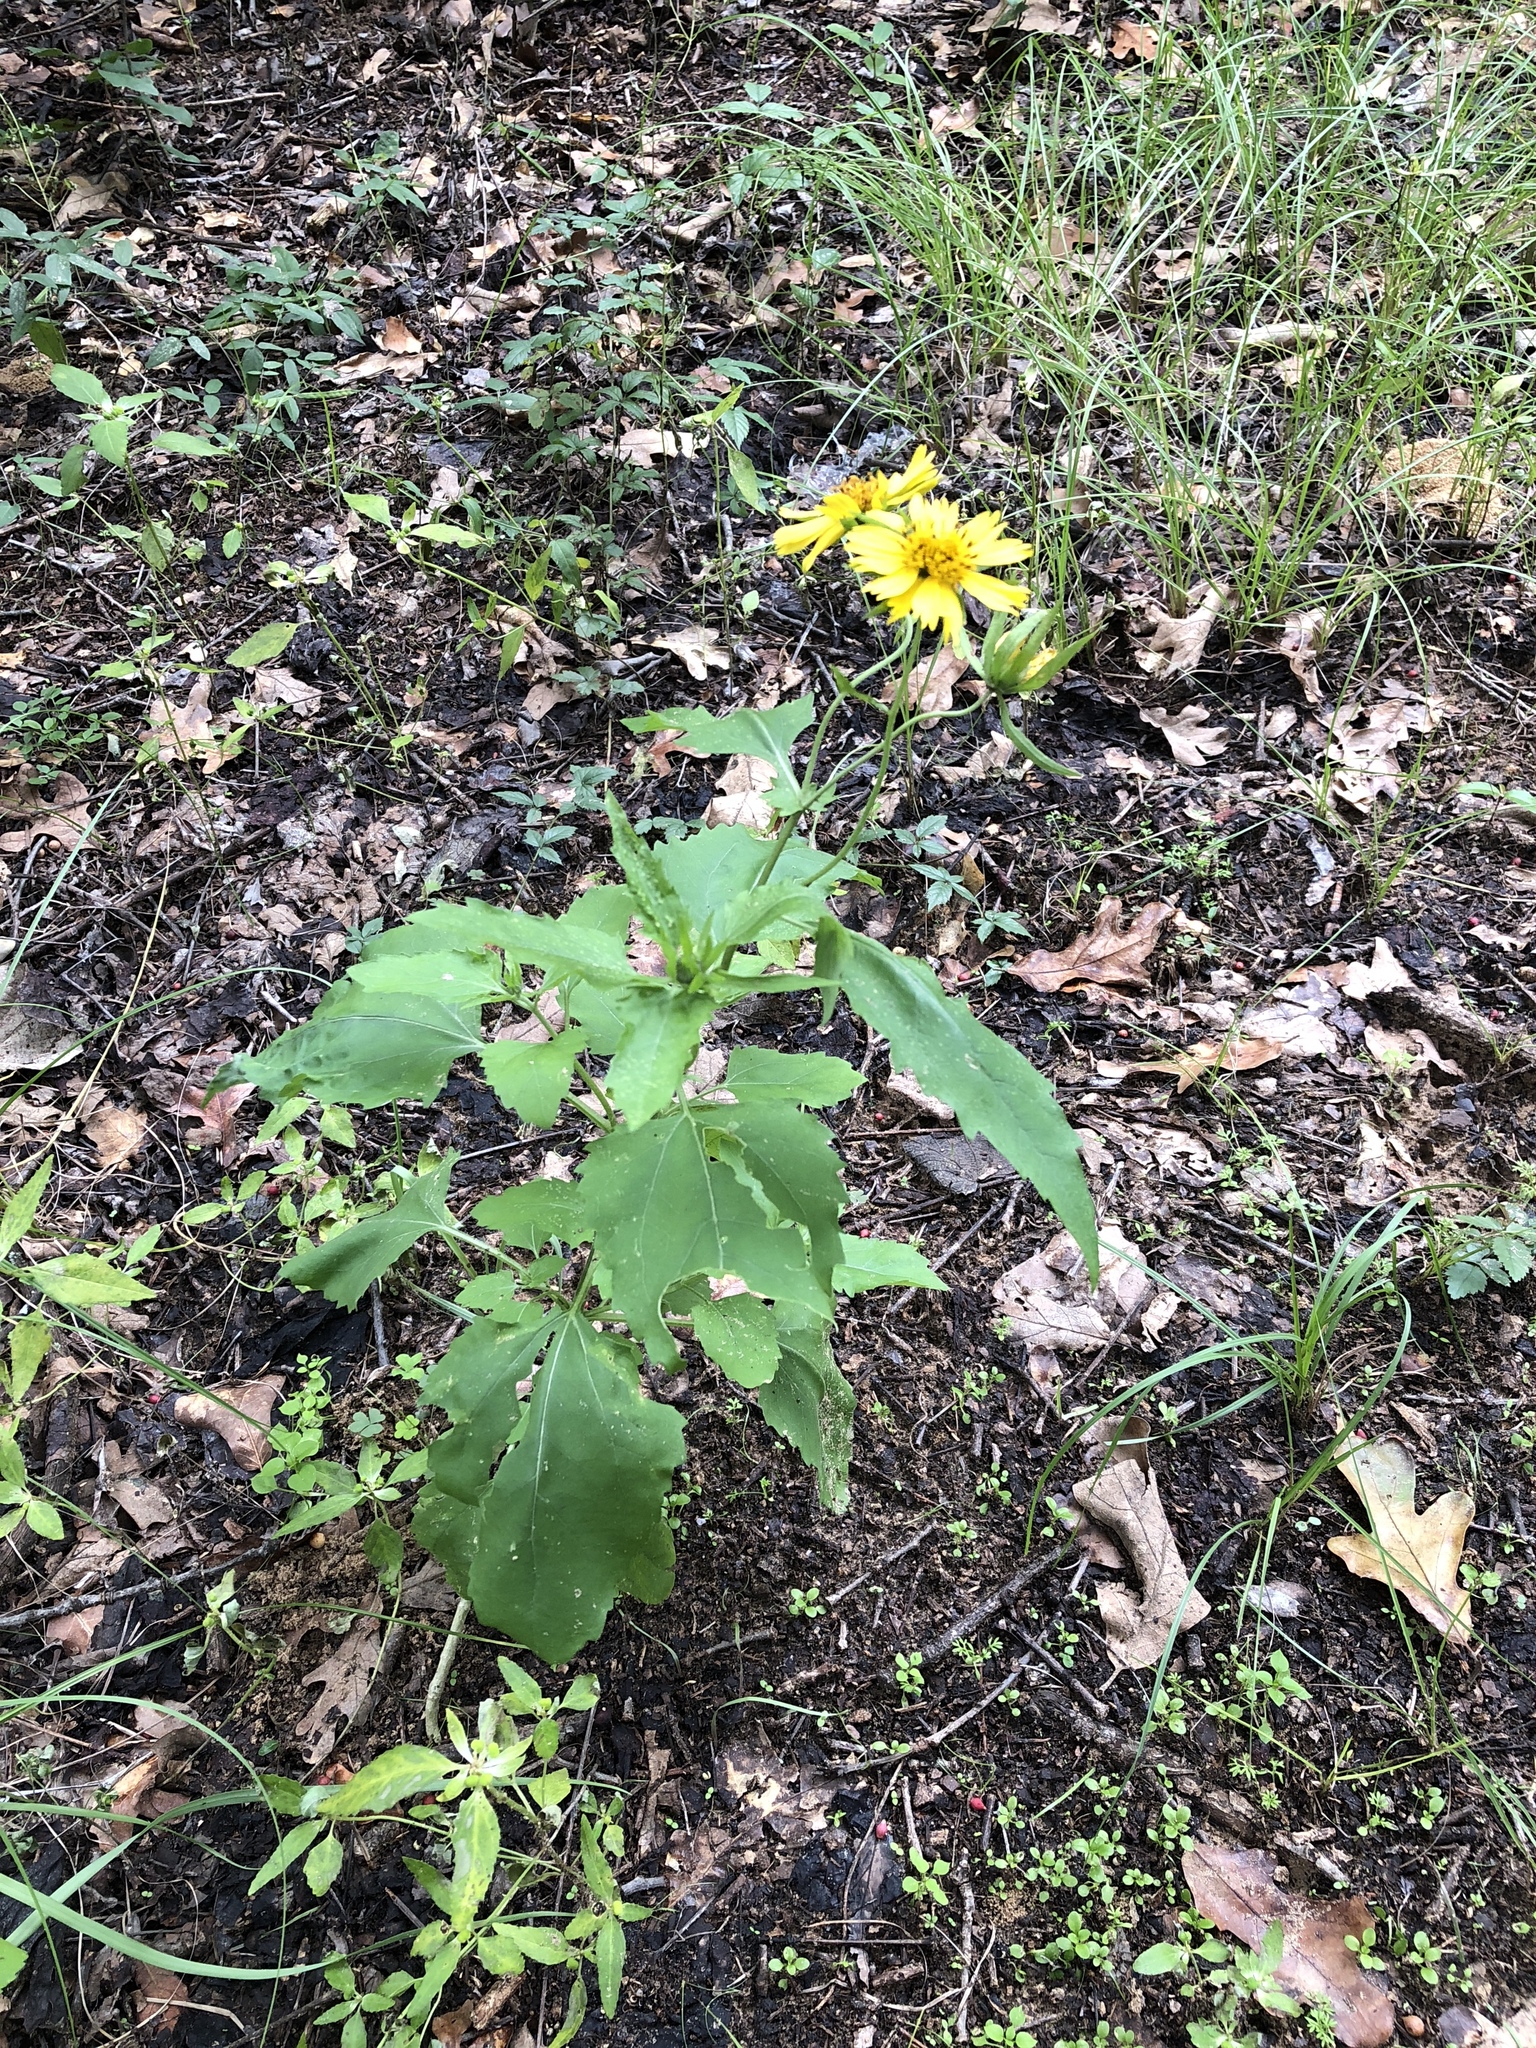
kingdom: Plantae
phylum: Tracheophyta
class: Magnoliopsida
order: Asterales
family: Asteraceae
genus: Verbesina
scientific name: Verbesina encelioides
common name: Golden crownbeard
